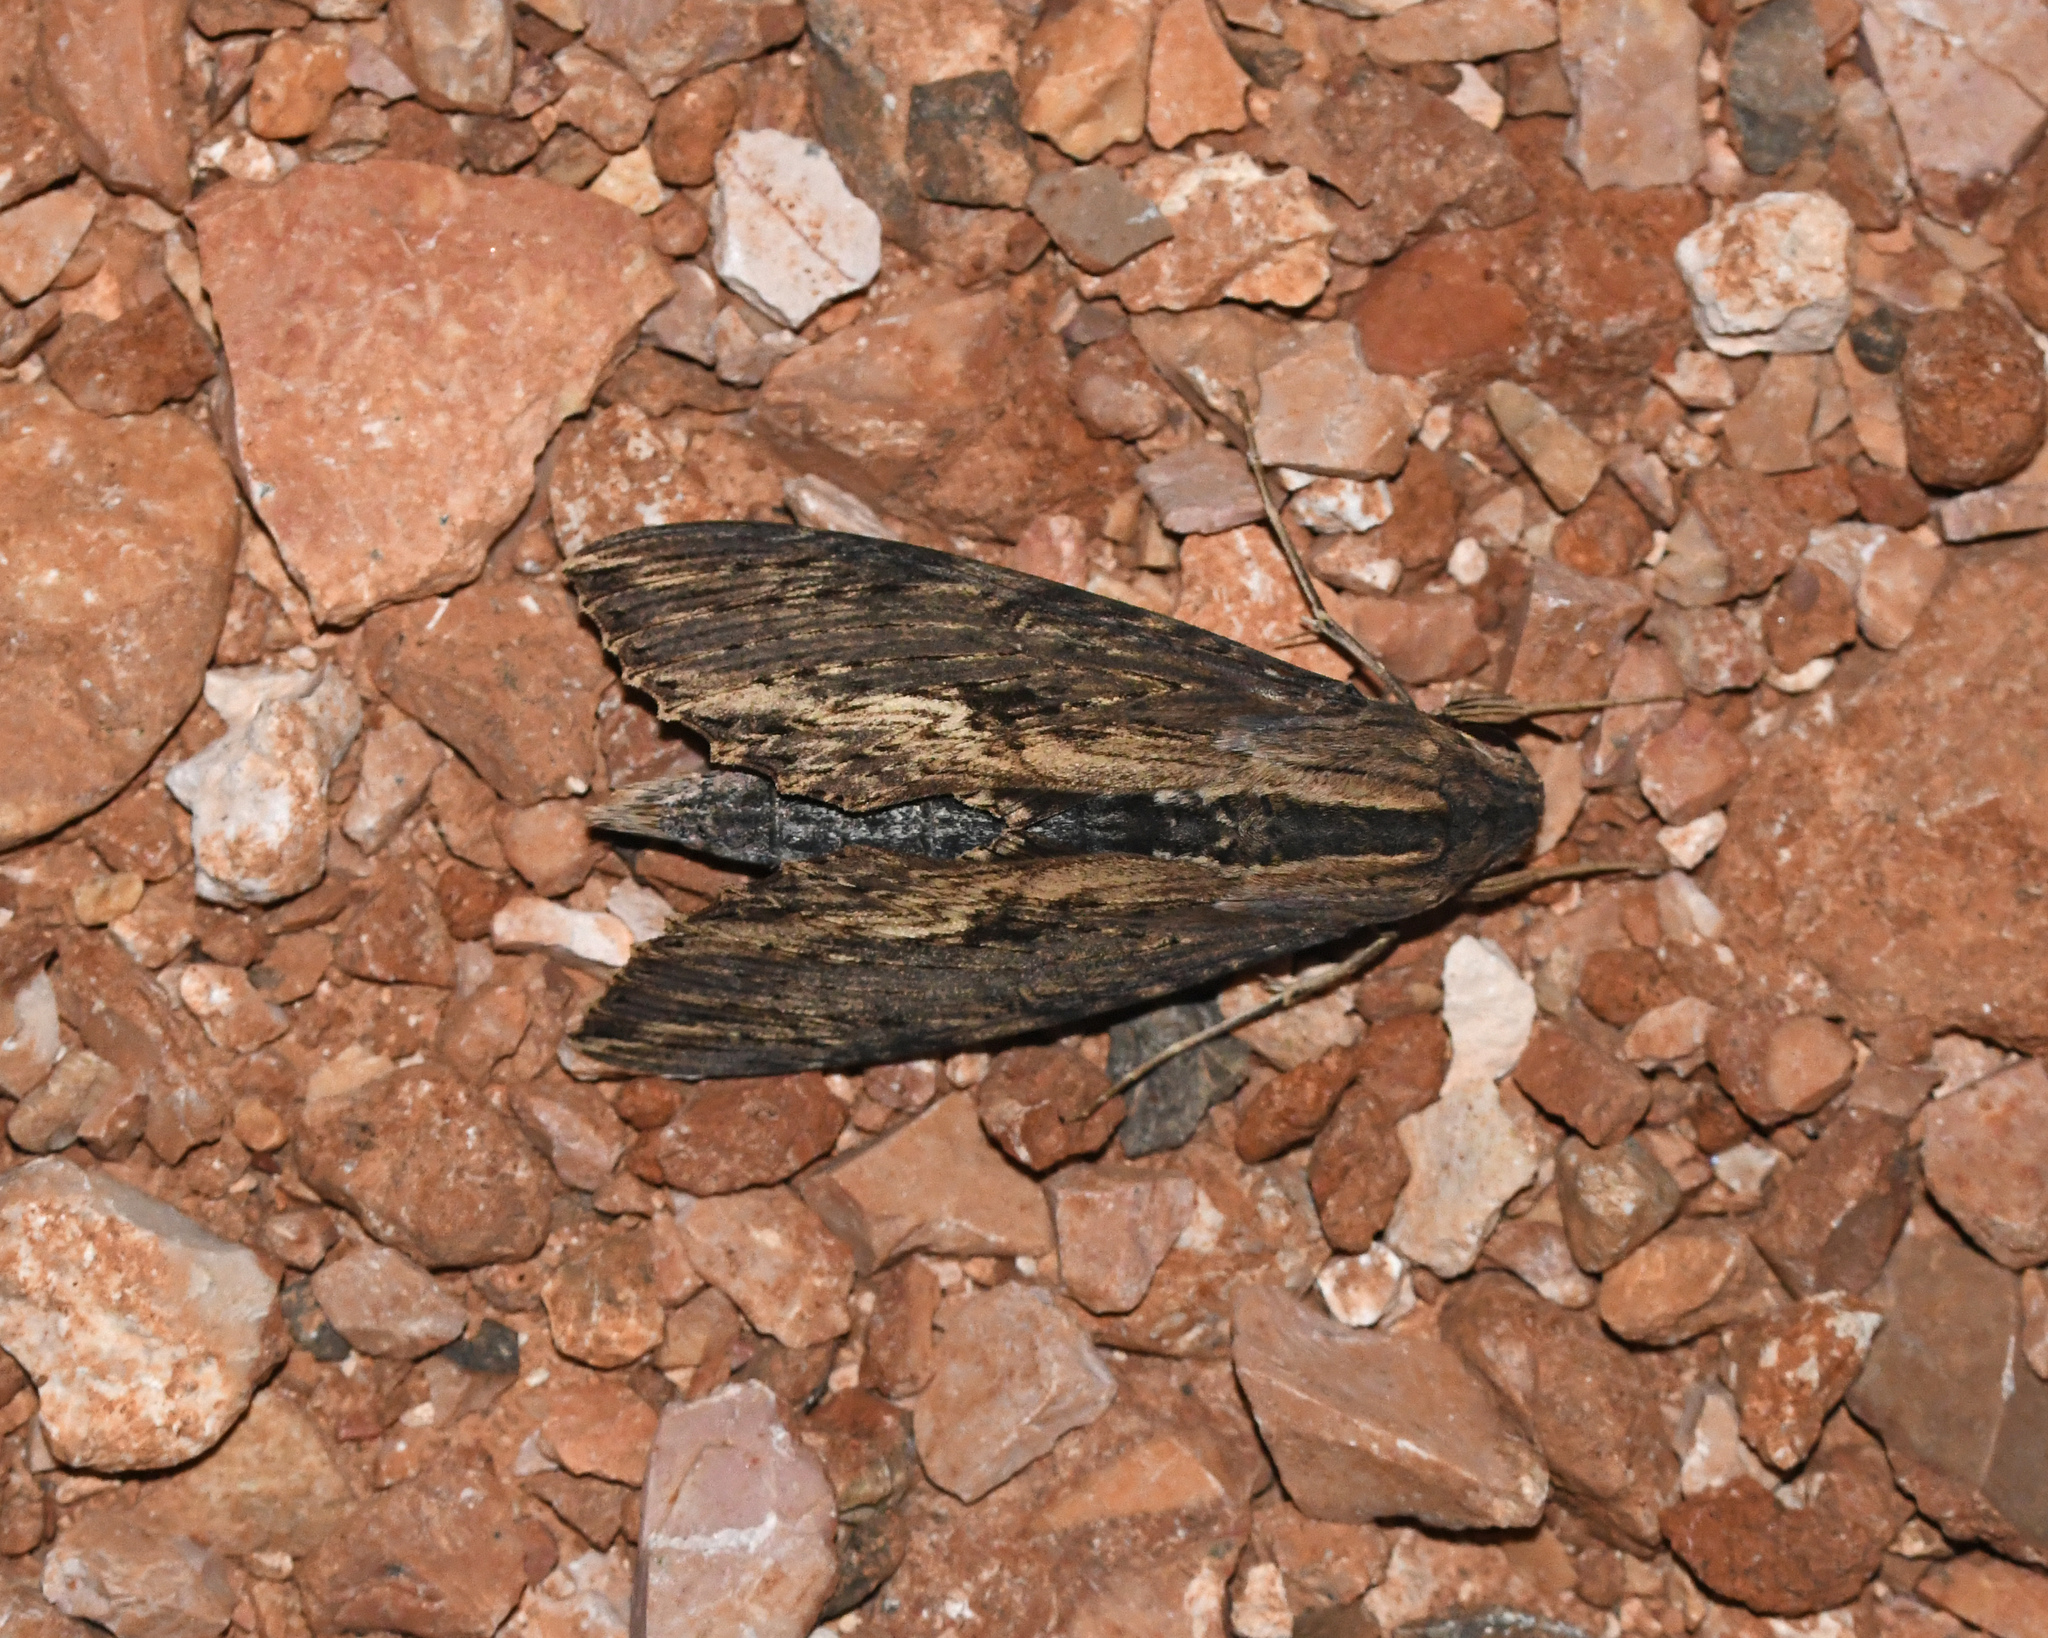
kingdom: Animalia
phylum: Arthropoda
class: Insecta
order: Lepidoptera
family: Sphingidae
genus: Erinnyis
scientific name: Erinnyis alope
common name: Alope sphinx
